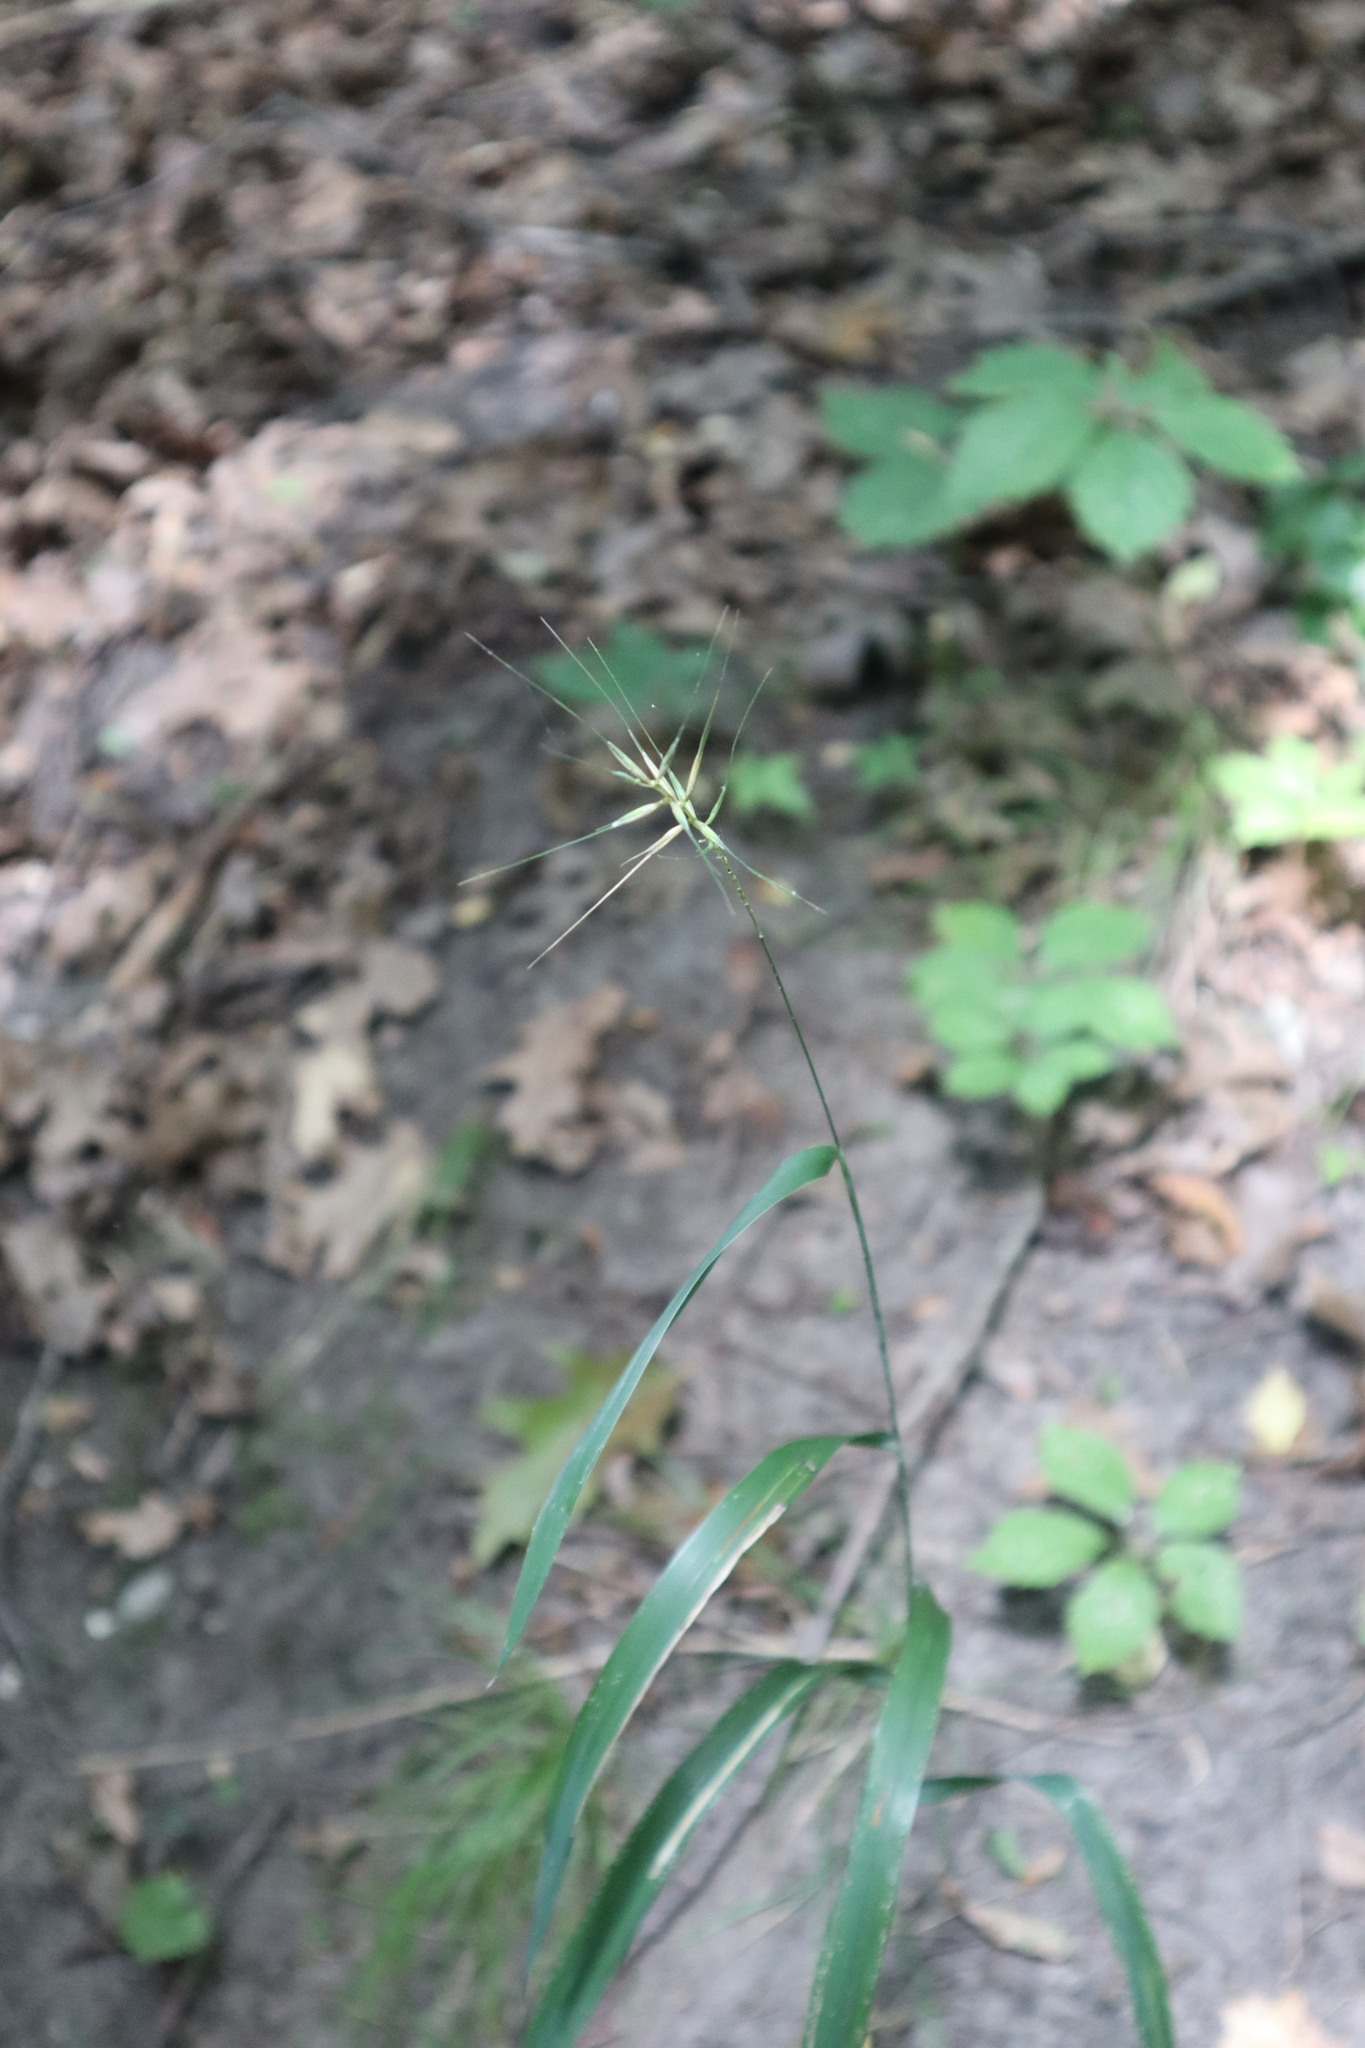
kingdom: Plantae
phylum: Tracheophyta
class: Liliopsida
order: Poales
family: Poaceae
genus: Elymus
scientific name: Elymus hystrix
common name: Bottlebrush grass
